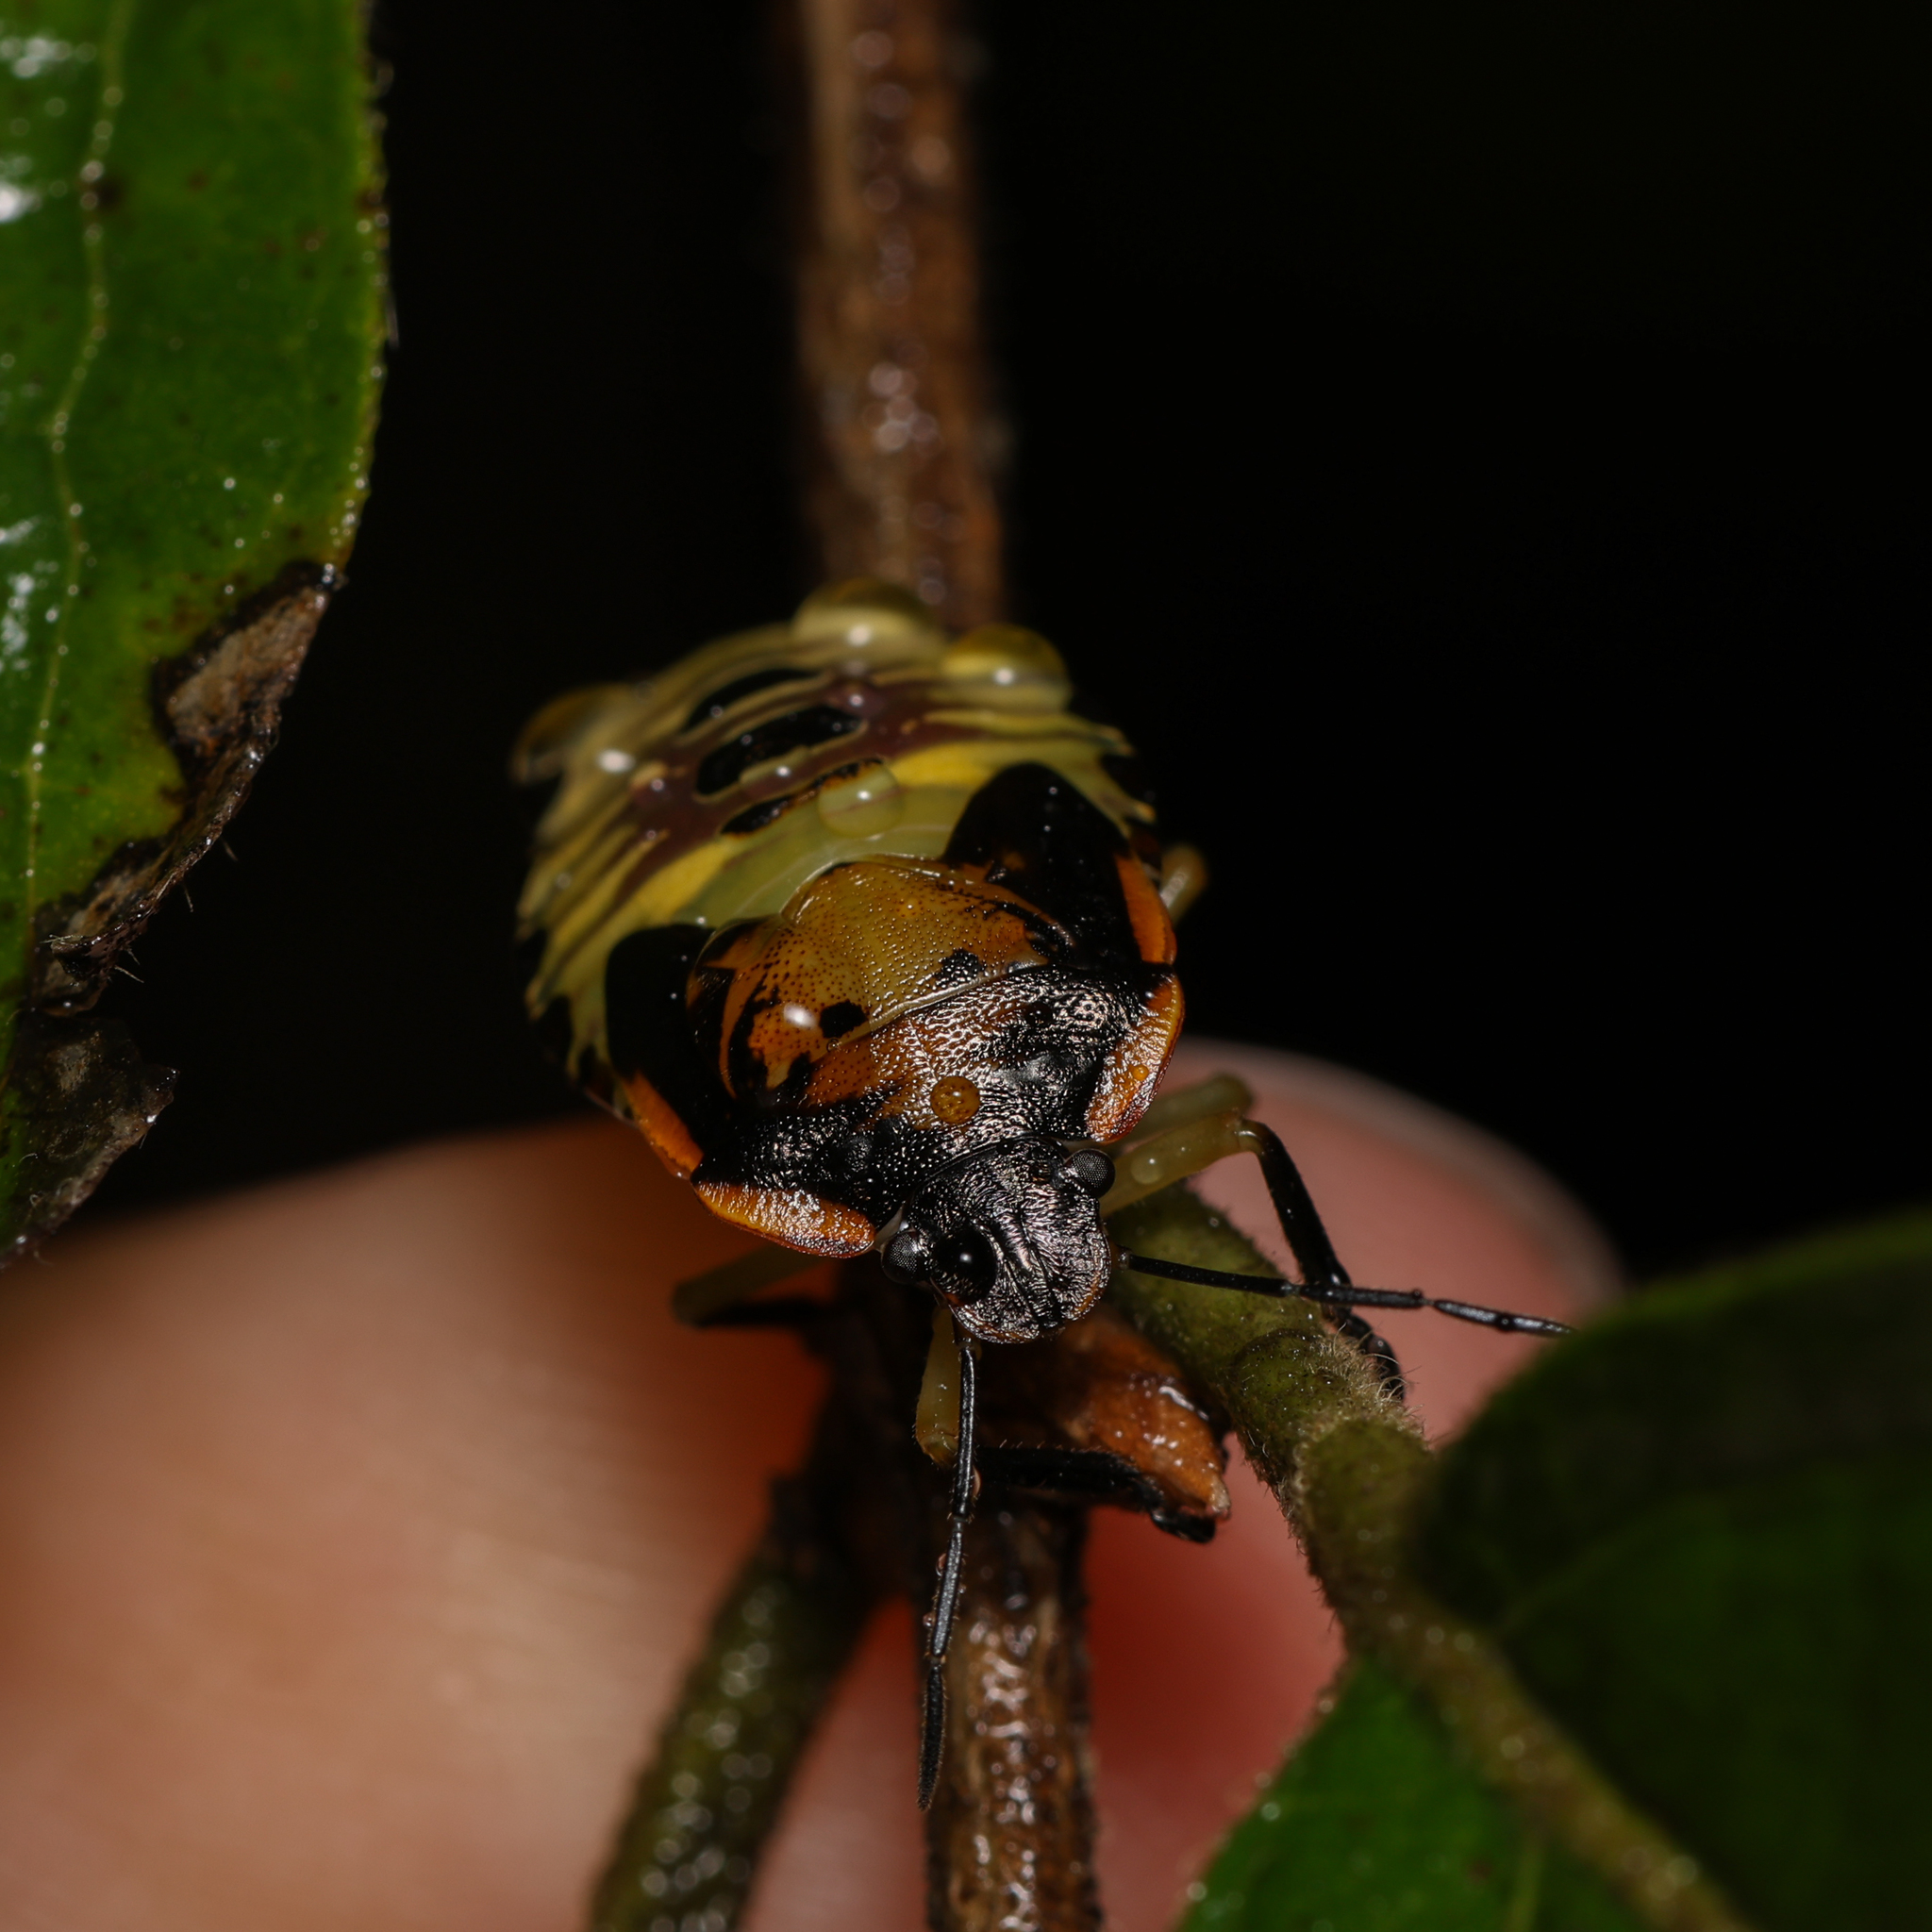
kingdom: Animalia
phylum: Arthropoda
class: Insecta
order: Hemiptera
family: Pentatomidae
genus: Chinavia
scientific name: Chinavia hilaris
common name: Green stink bug
